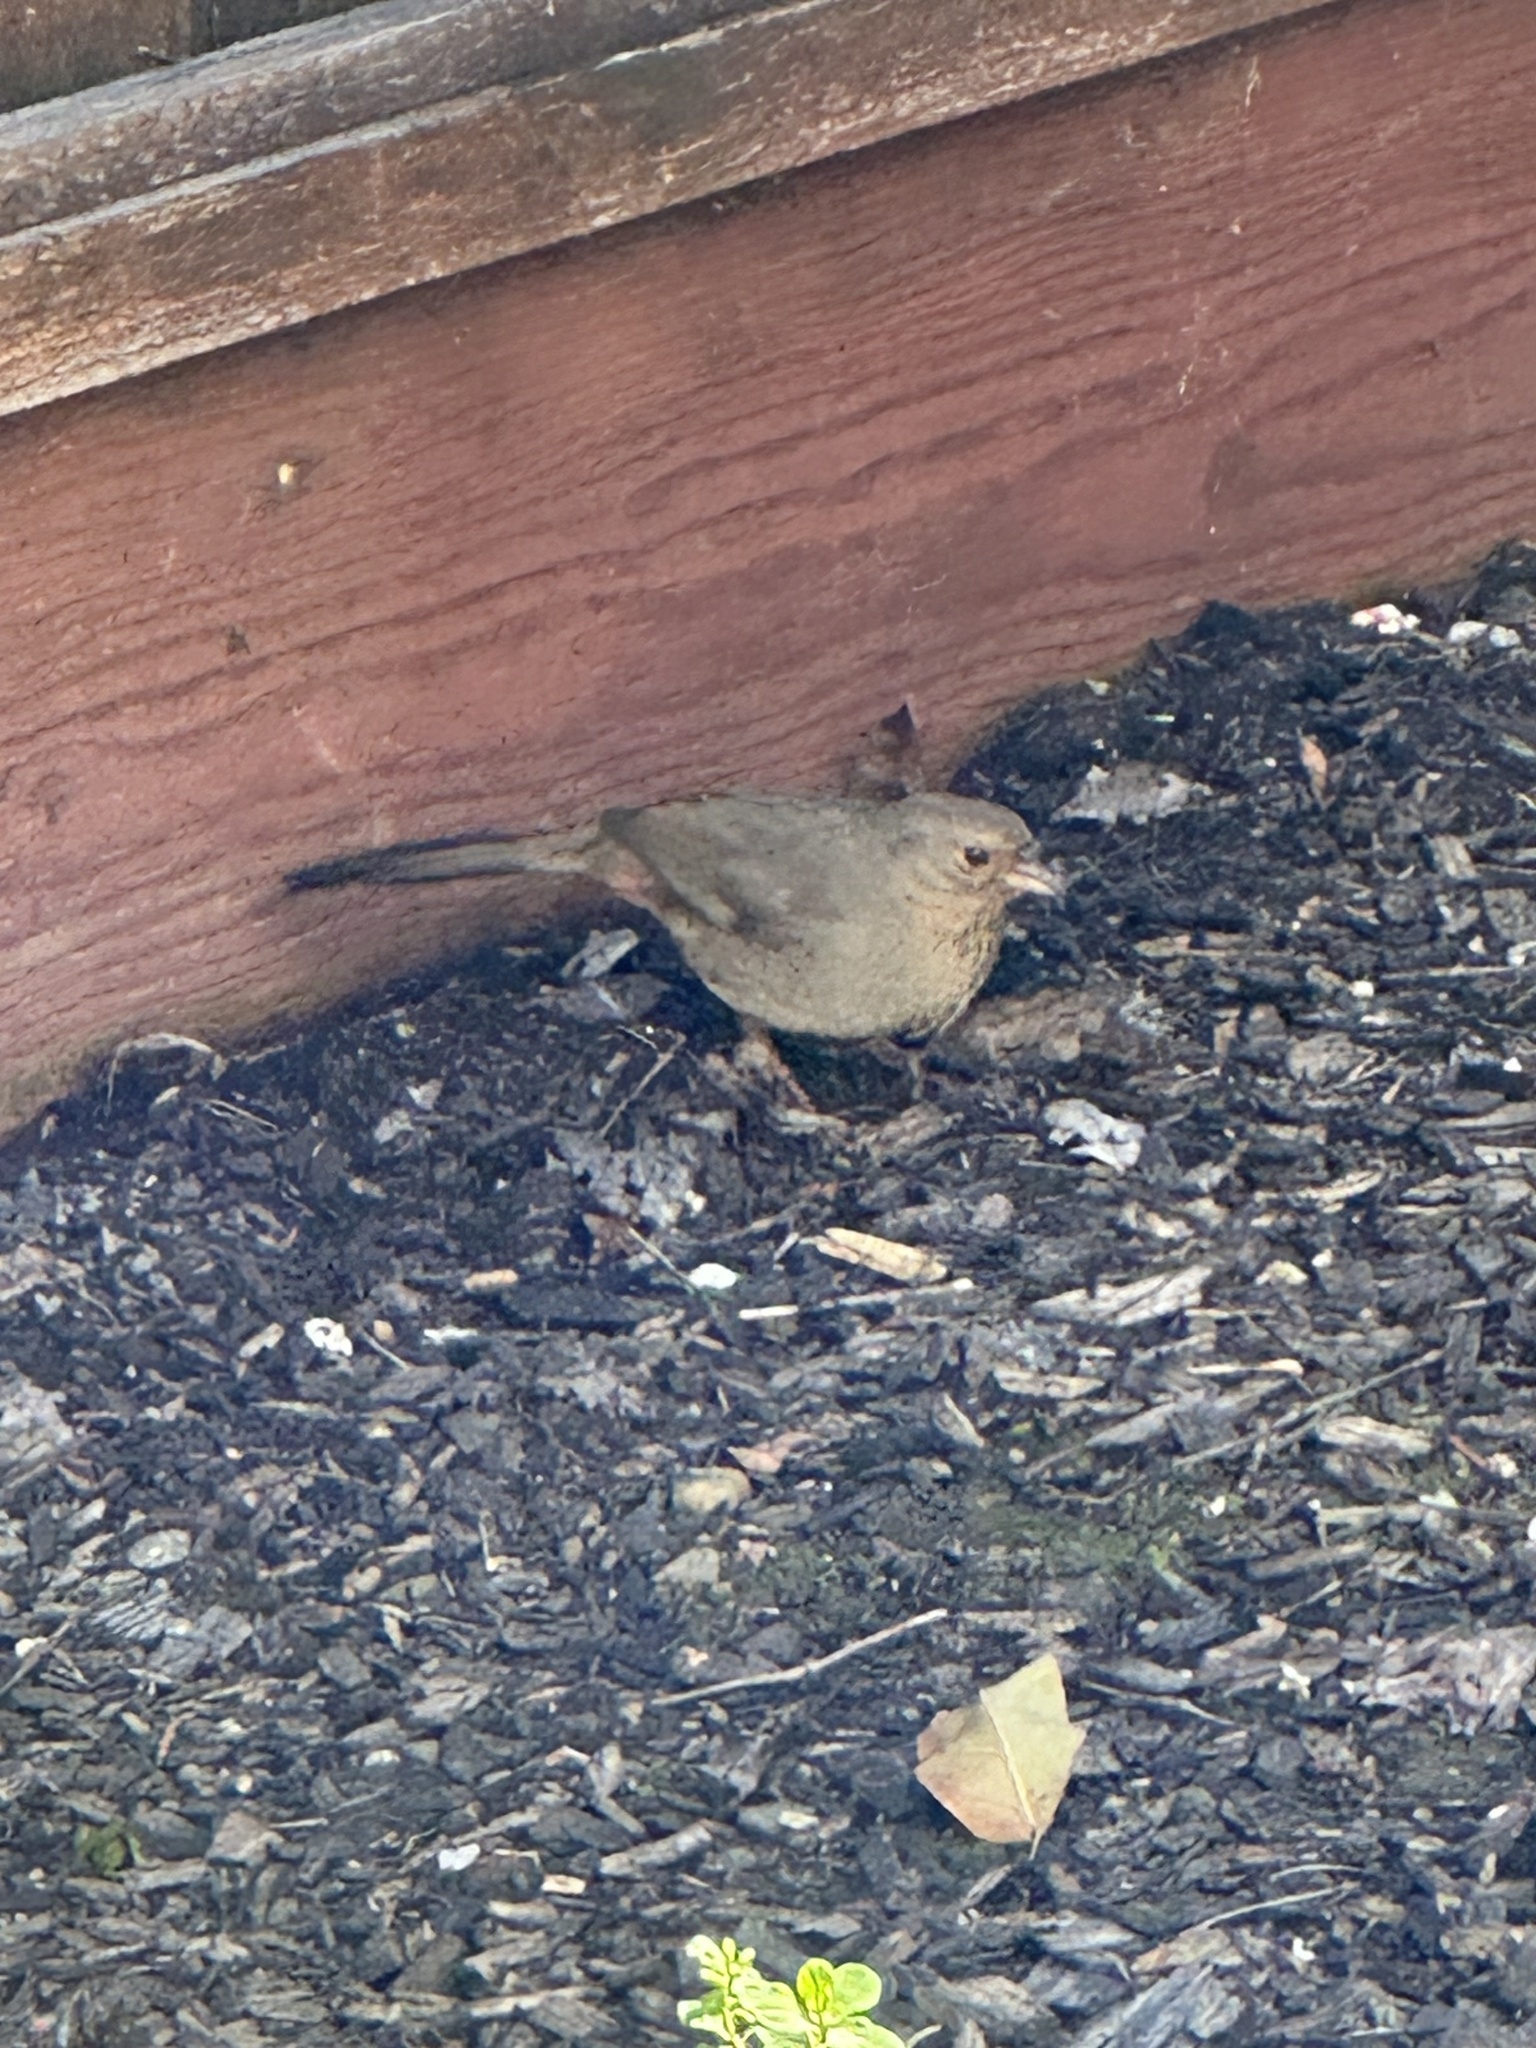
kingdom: Animalia
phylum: Chordata
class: Aves
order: Passeriformes
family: Passerellidae
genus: Melozone
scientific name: Melozone crissalis
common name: California towhee
